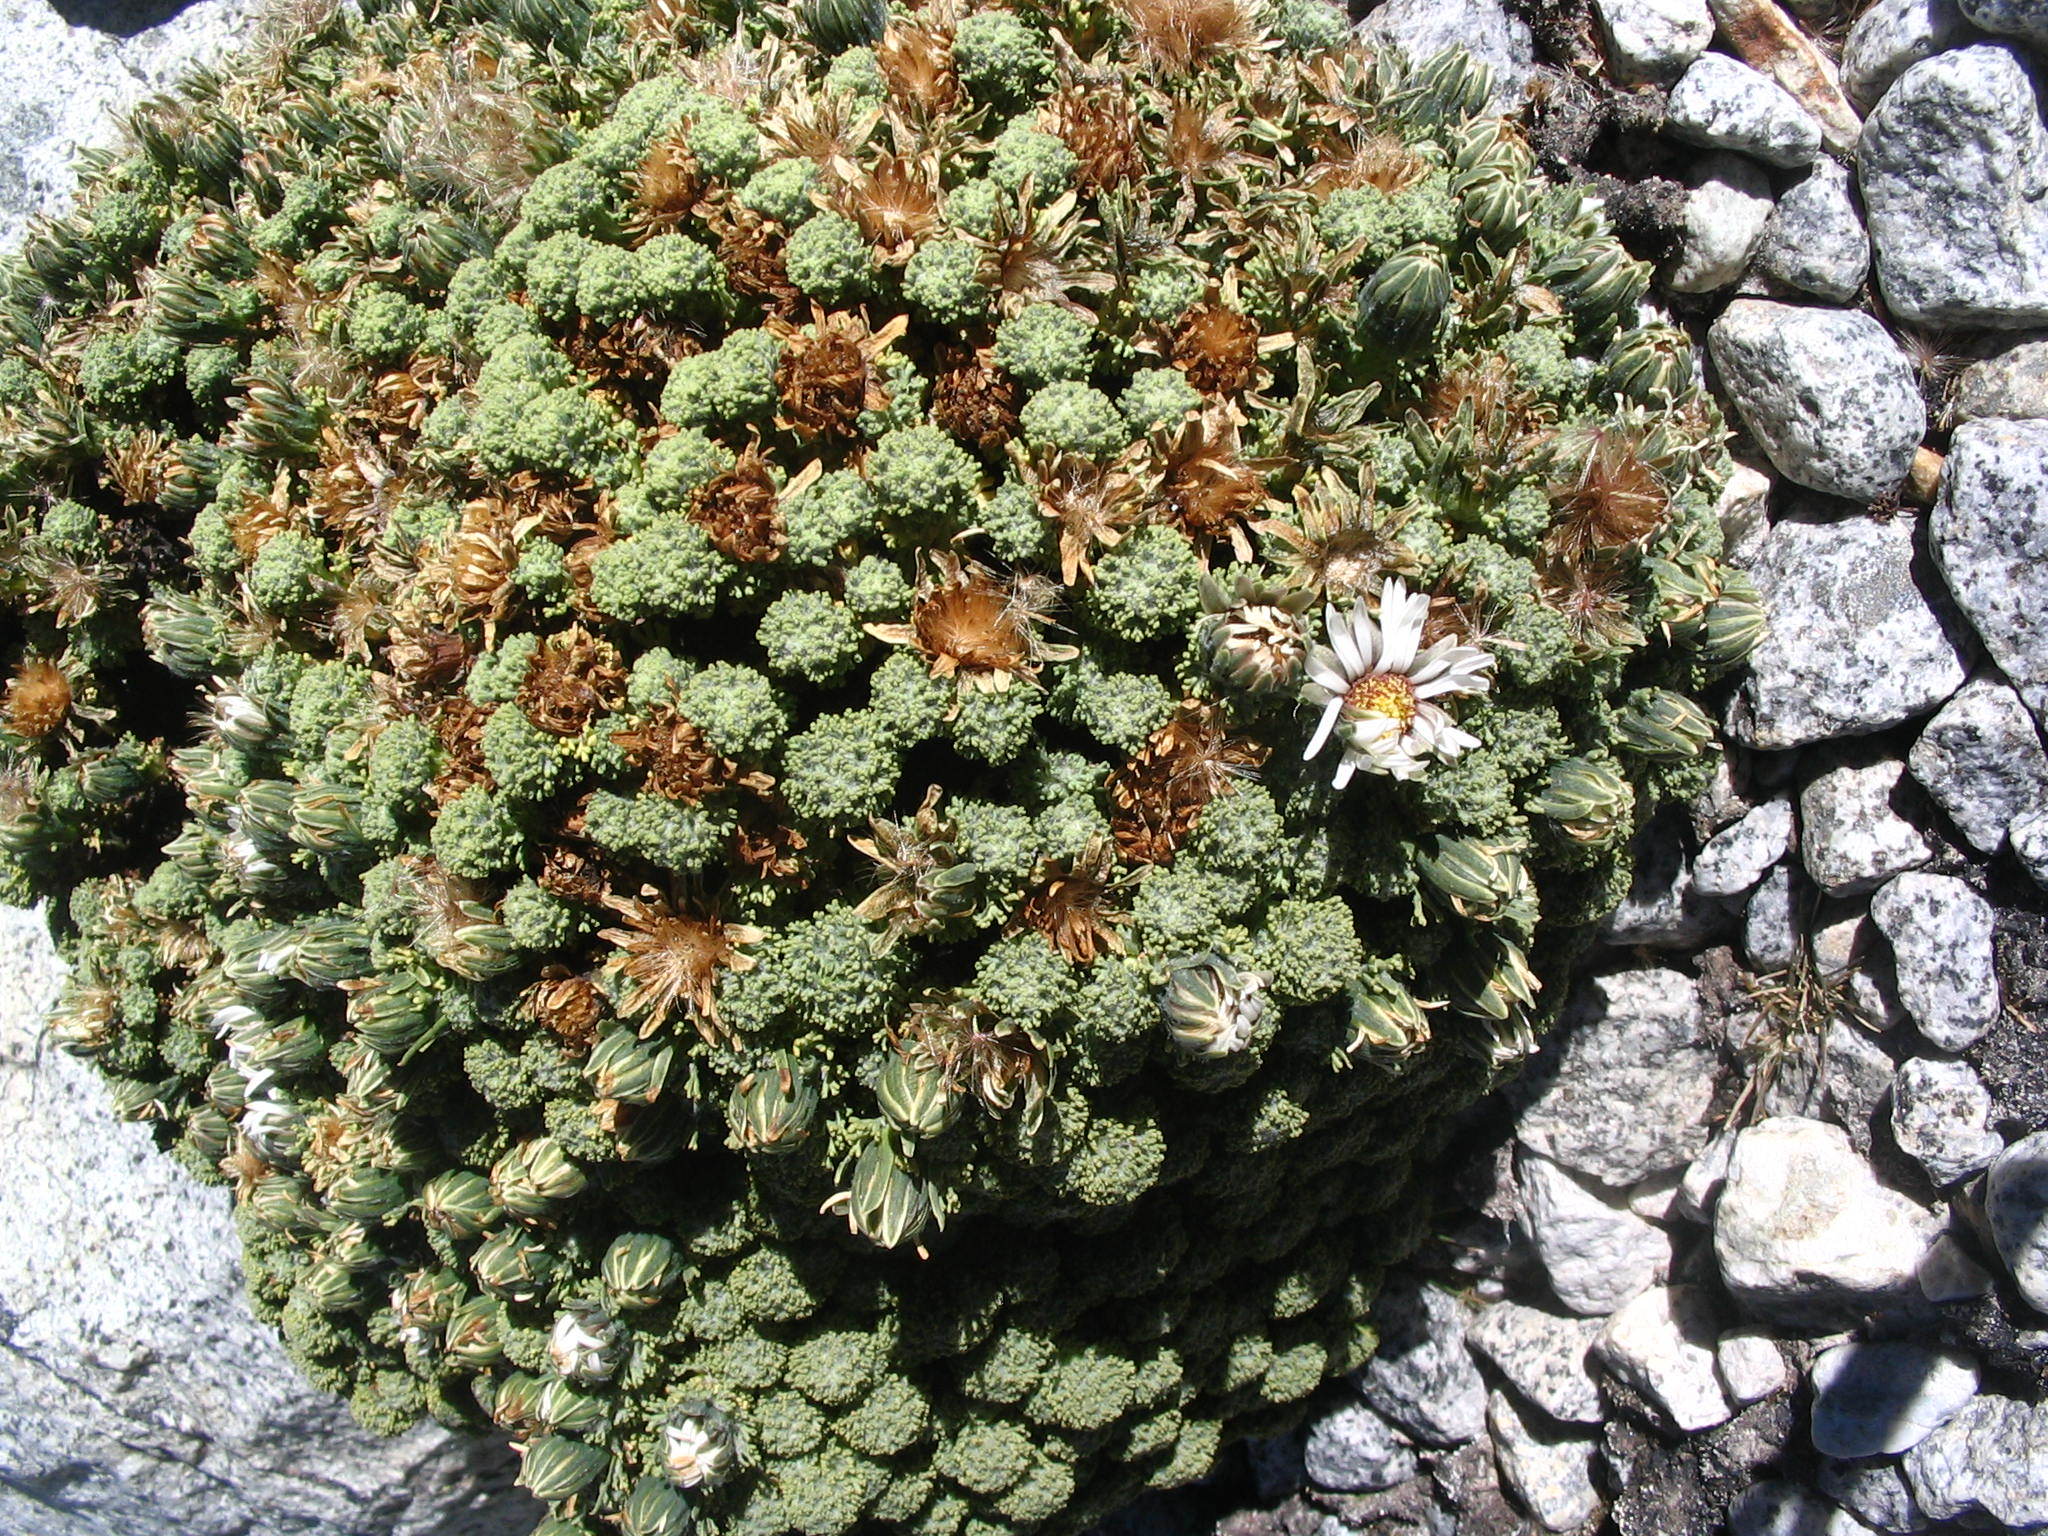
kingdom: Plantae
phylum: Tracheophyta
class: Magnoliopsida
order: Asterales
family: Asteraceae
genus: Werneria
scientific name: Werneria dactylophylla
